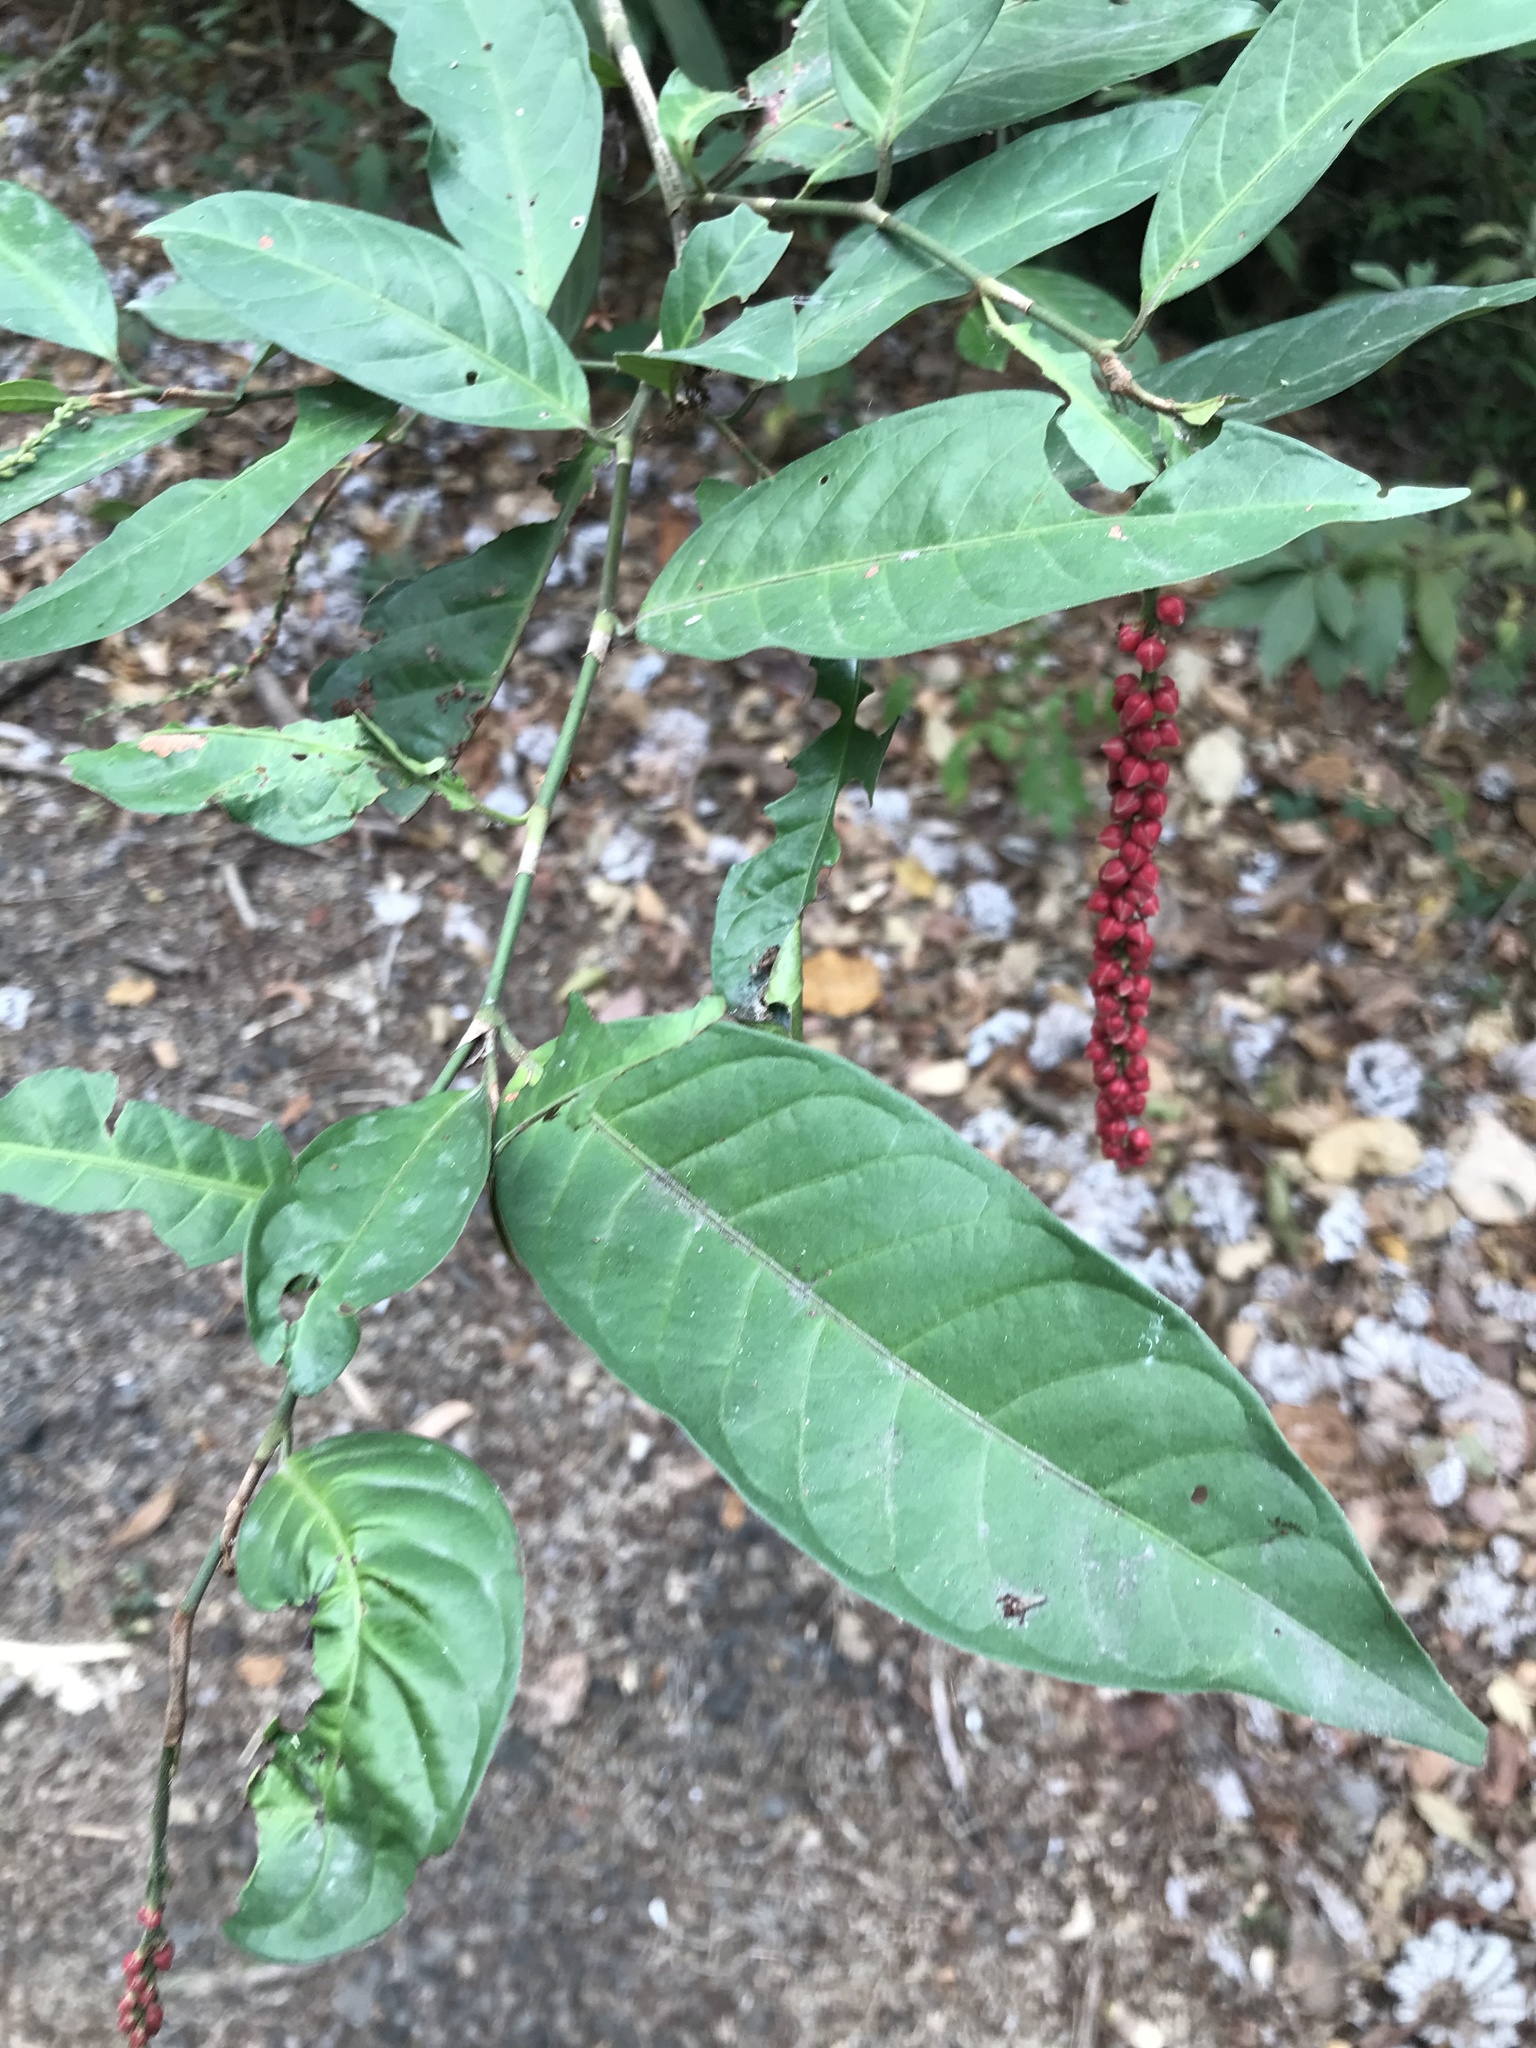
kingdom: Plantae
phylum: Tracheophyta
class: Magnoliopsida
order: Caryophyllales
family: Polygonaceae
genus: Coccoloba
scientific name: Coccoloba acuminata
